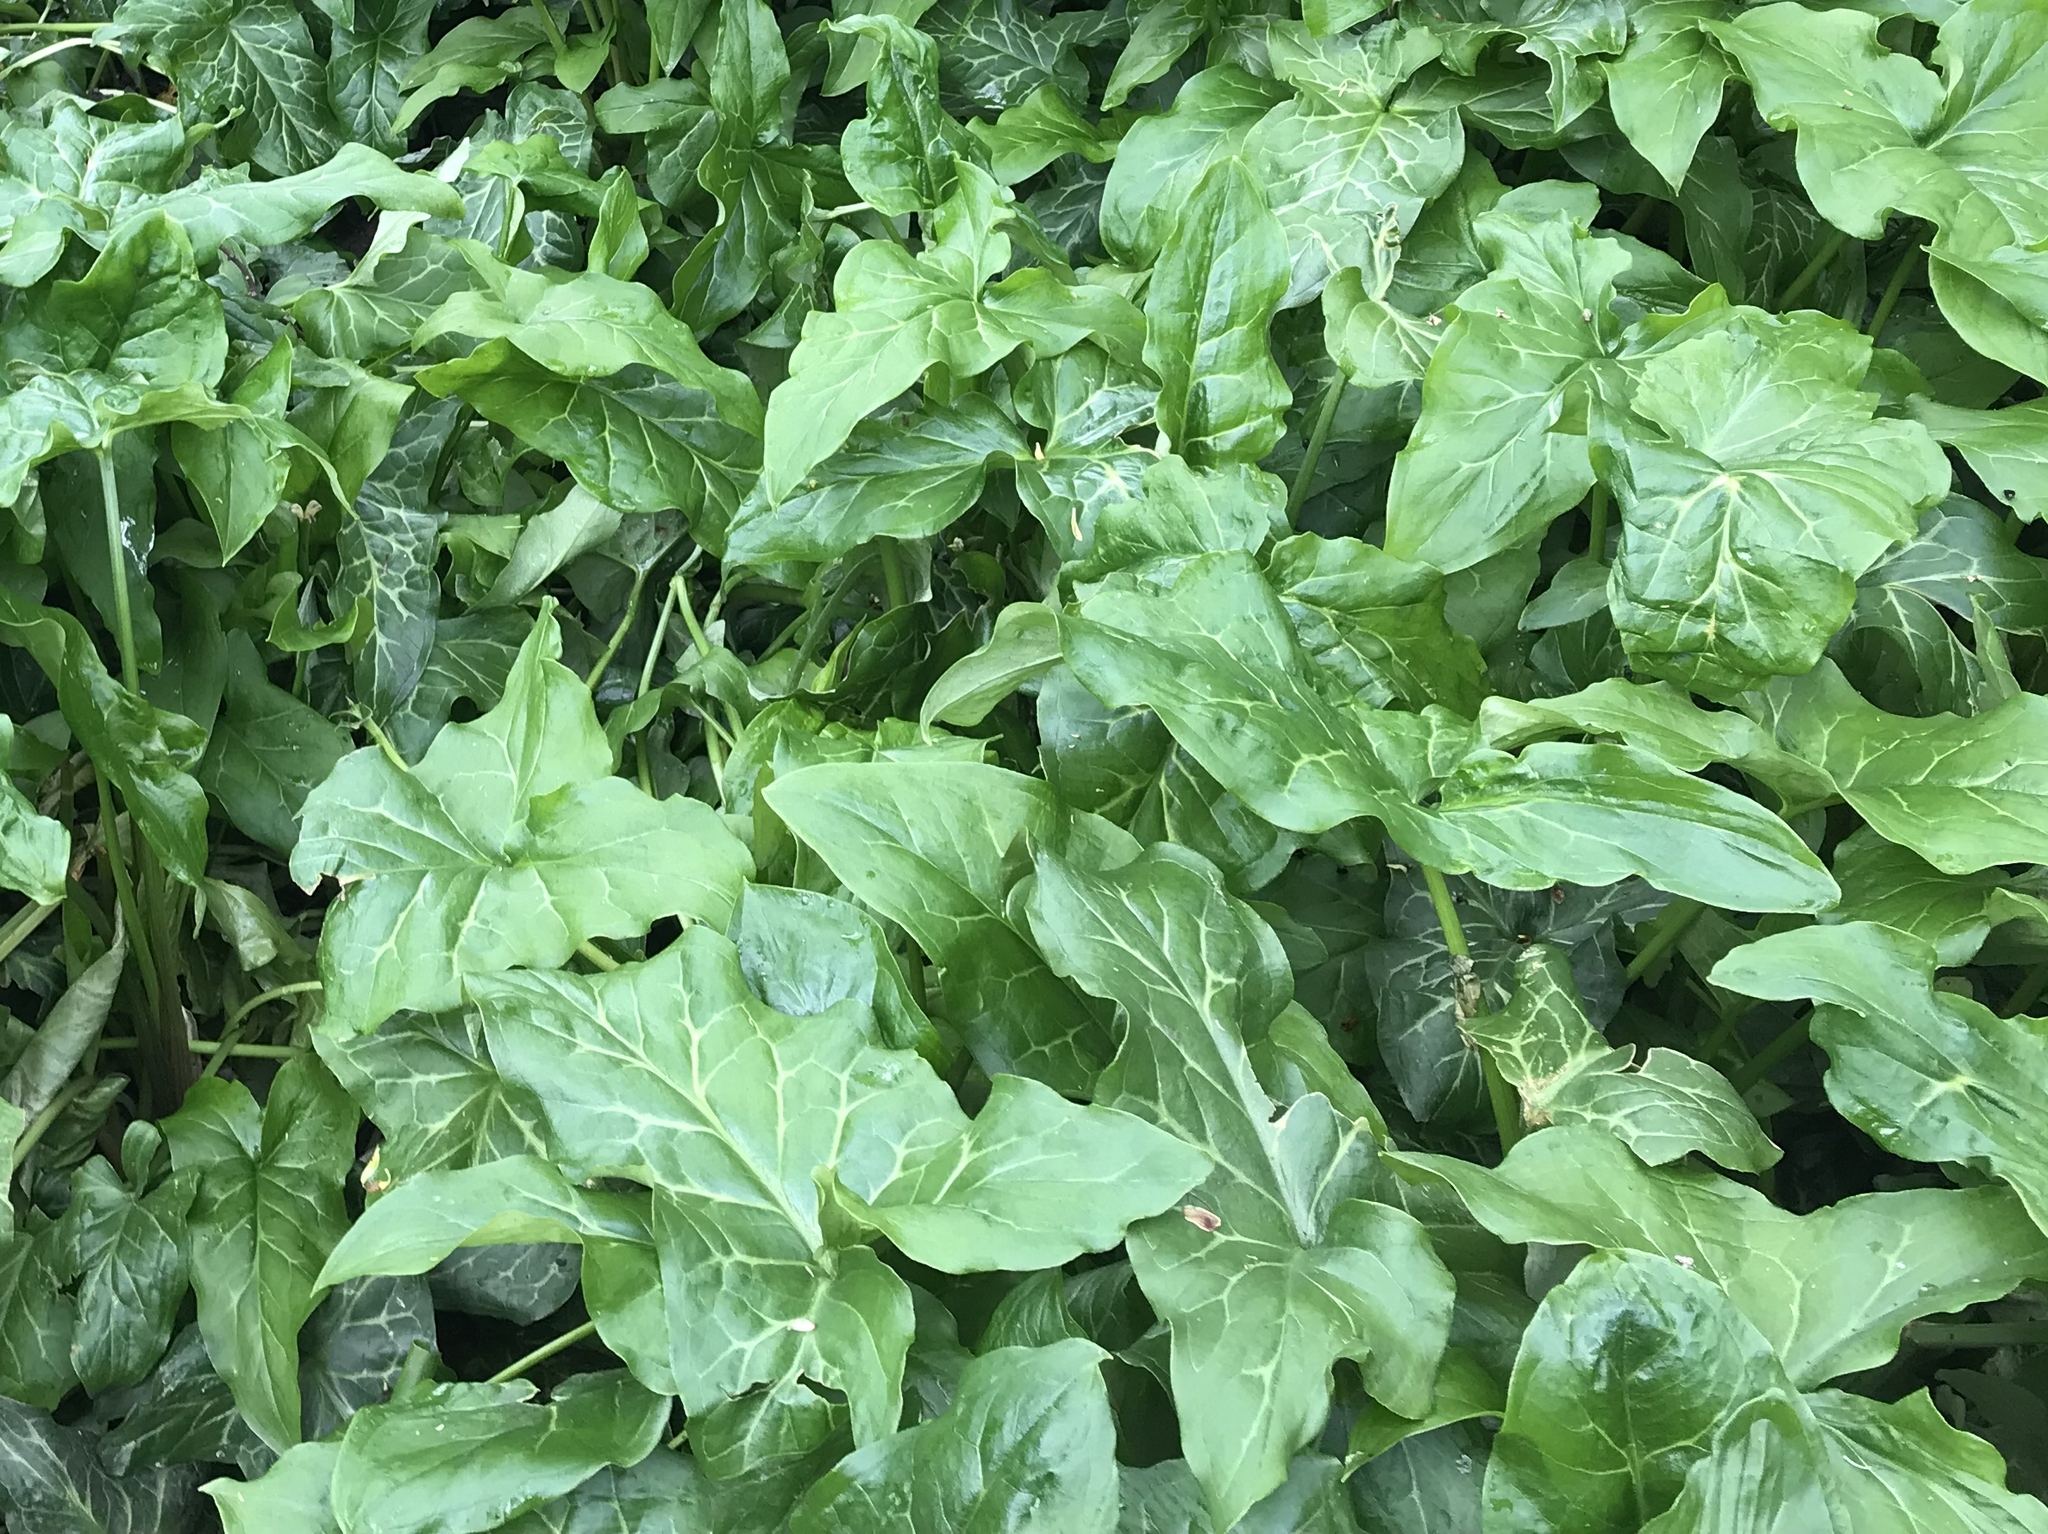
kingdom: Plantae
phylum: Tracheophyta
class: Liliopsida
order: Alismatales
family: Araceae
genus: Arum
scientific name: Arum maculatum
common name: Lords-and-ladies
